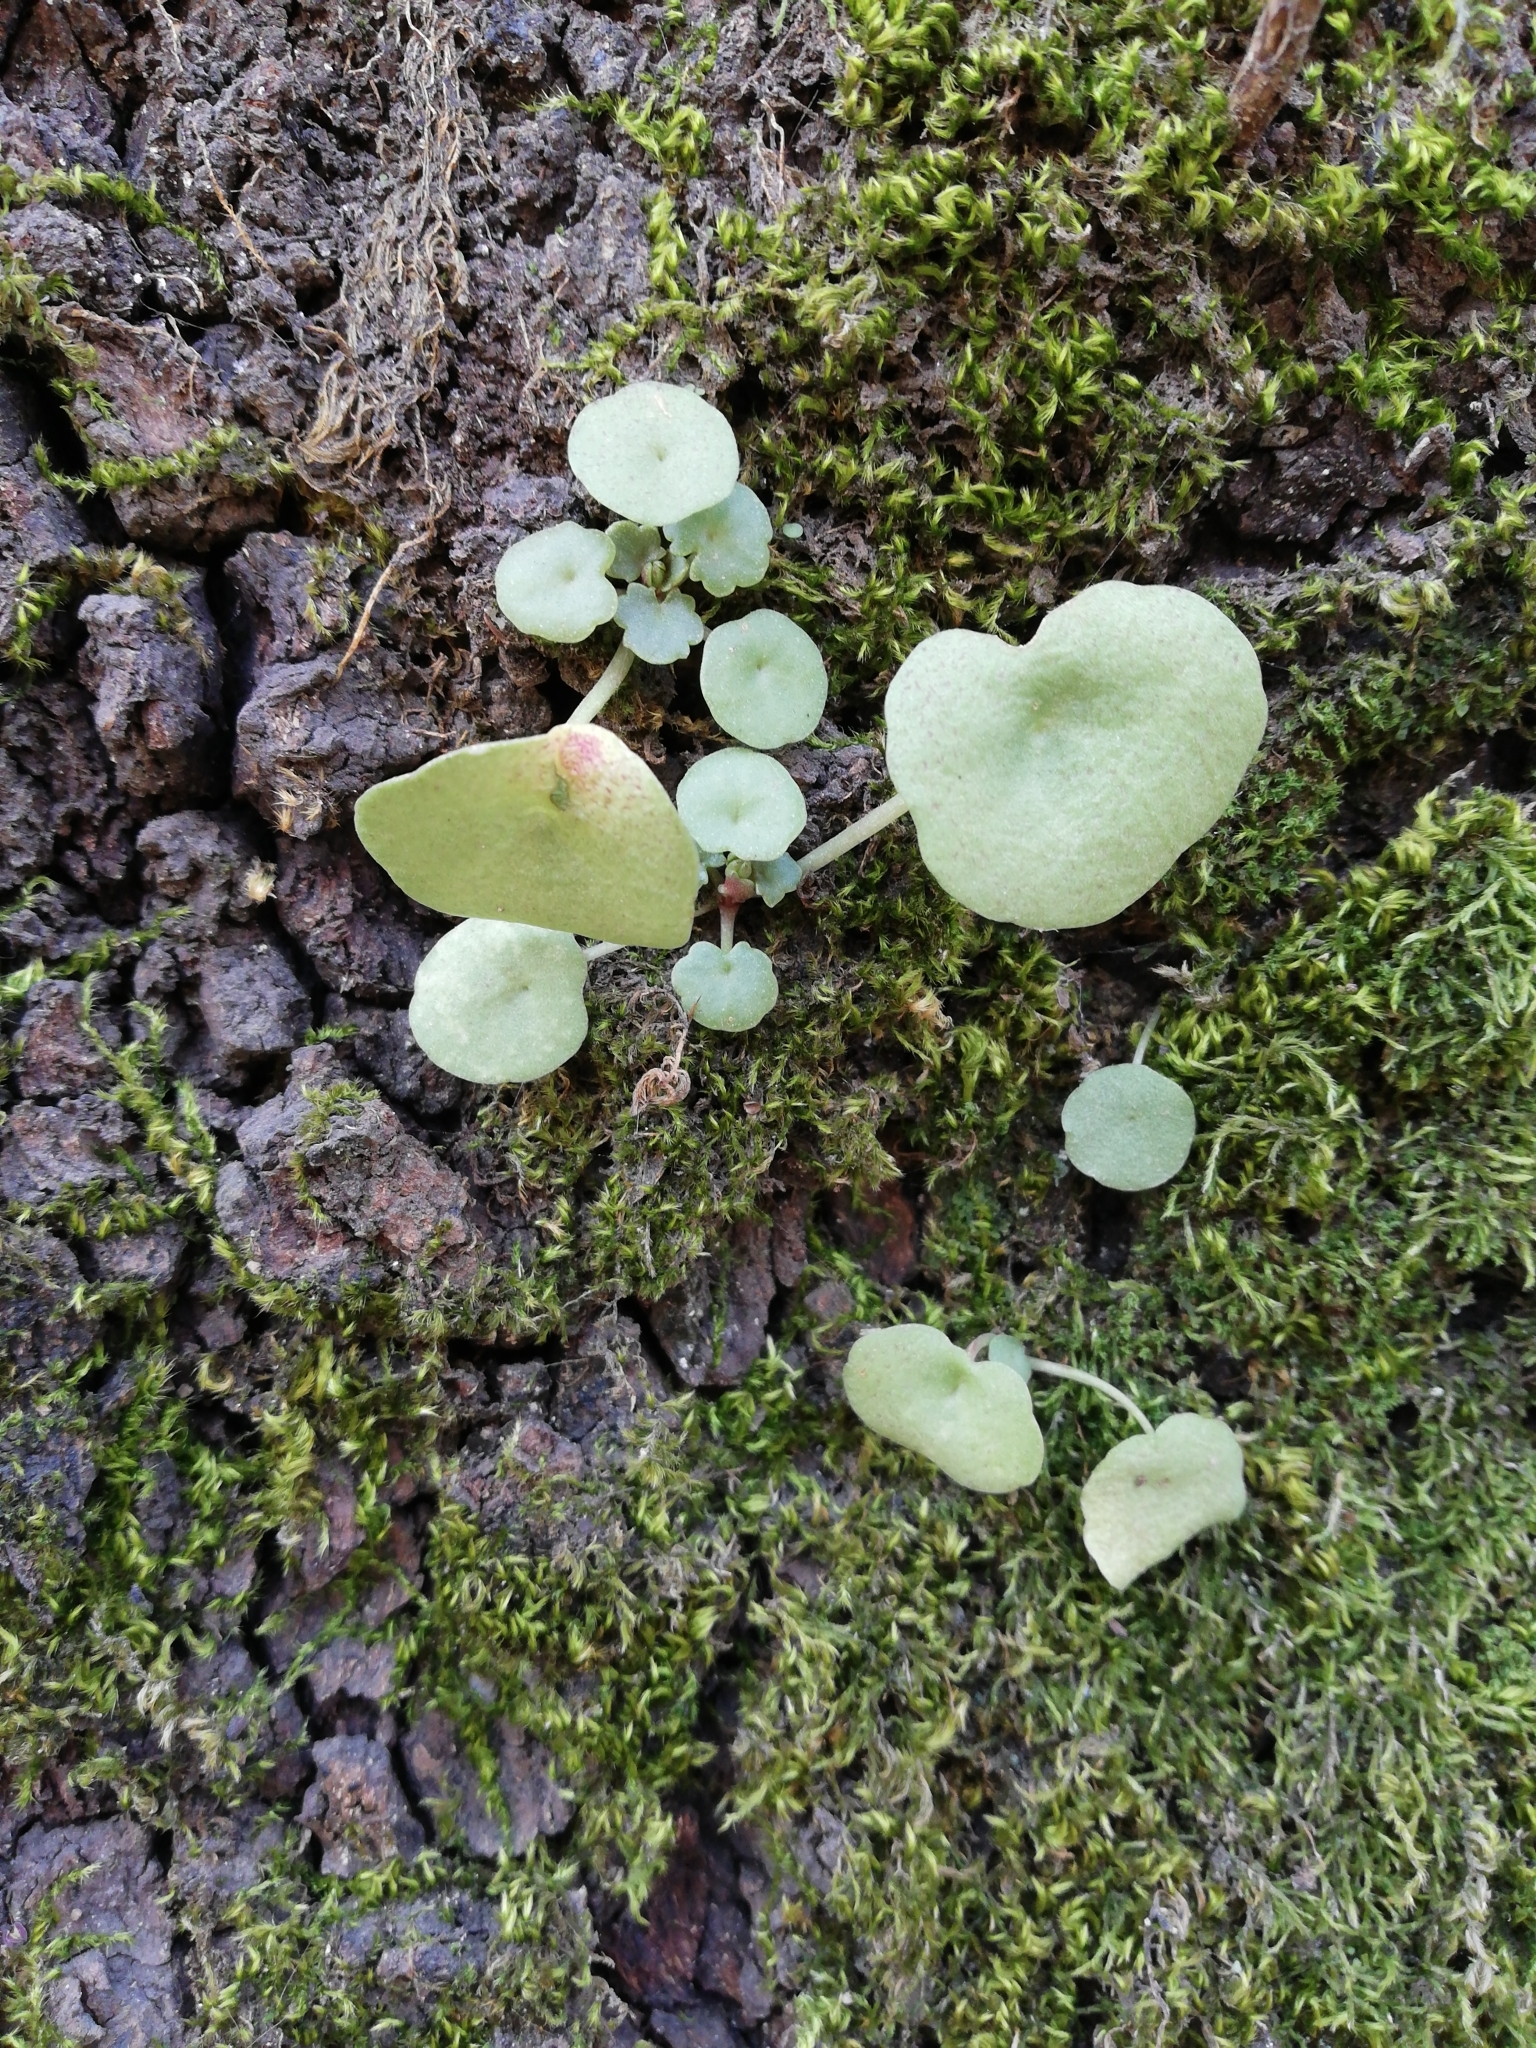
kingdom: Plantae
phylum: Tracheophyta
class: Magnoliopsida
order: Saxifragales
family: Crassulaceae
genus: Umbilicus
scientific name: Umbilicus rupestris
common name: Navelwort
